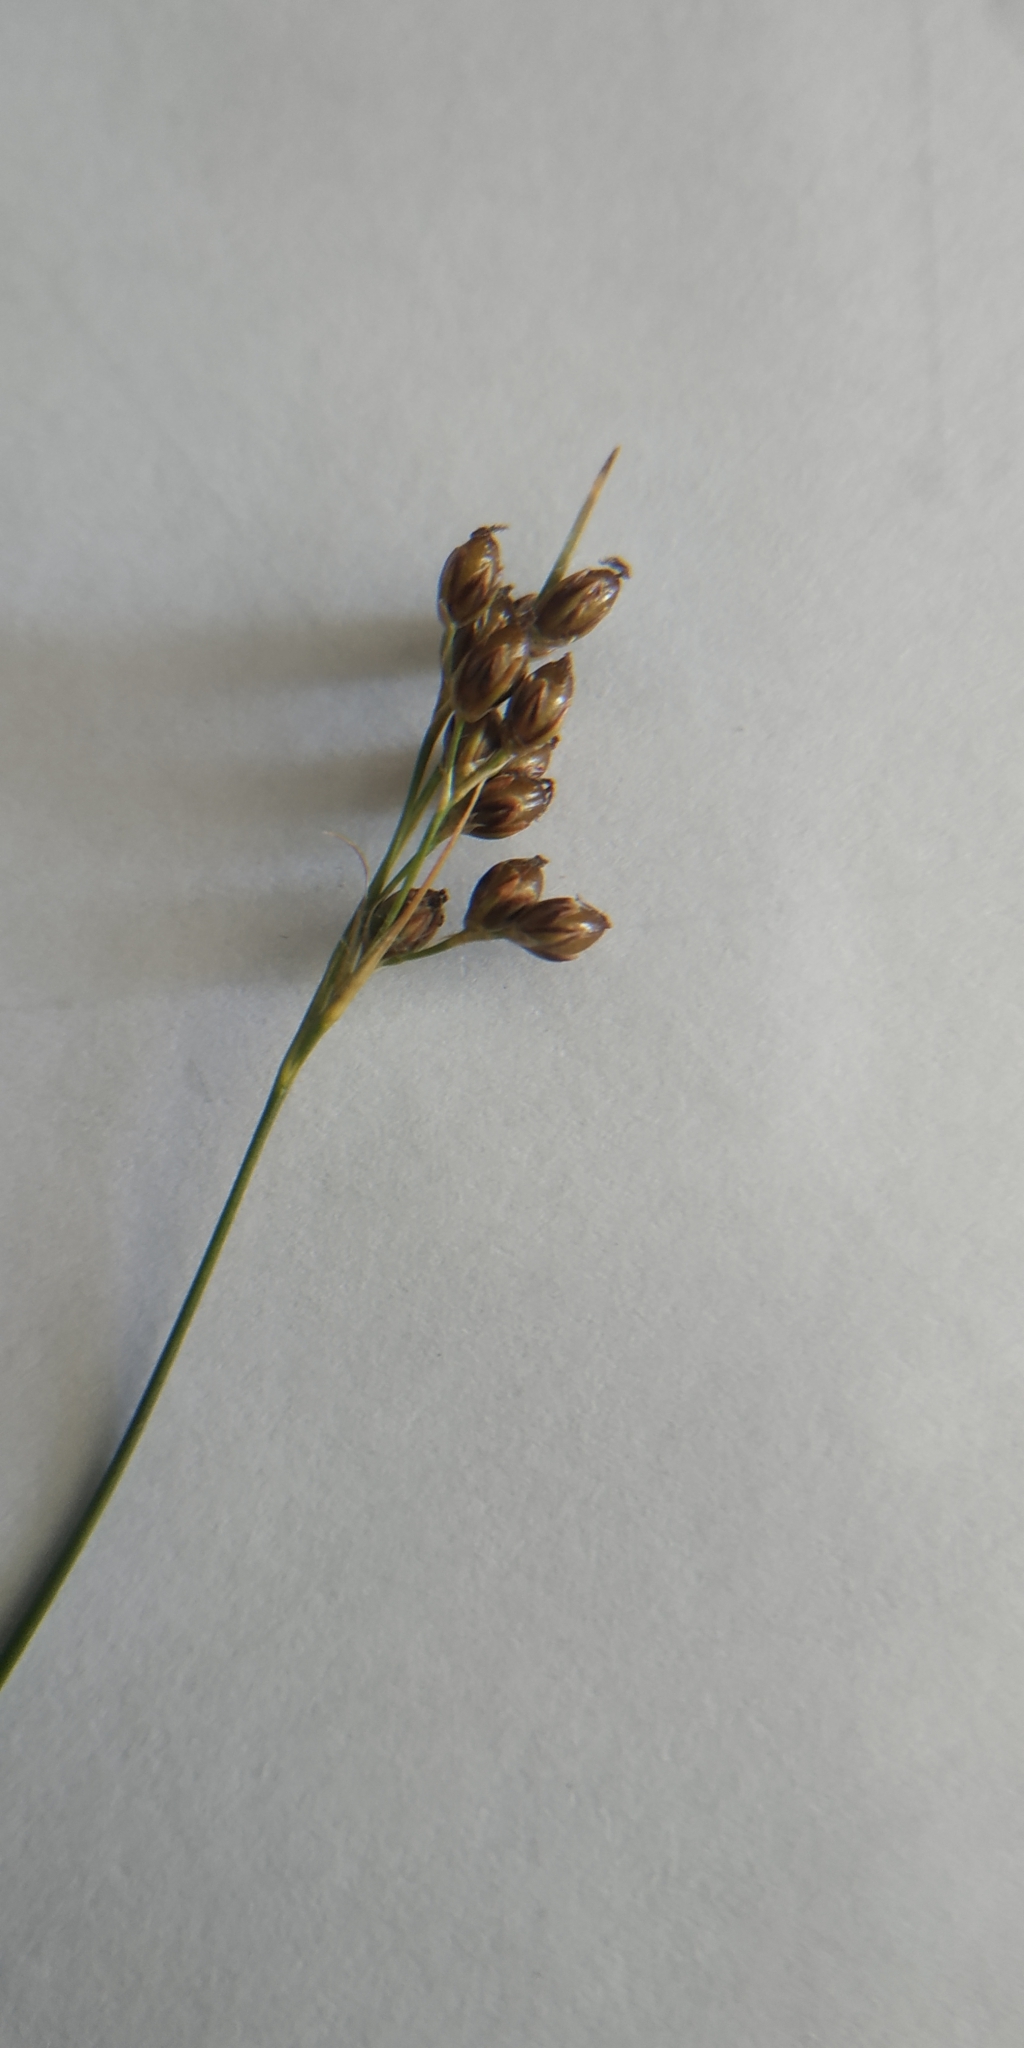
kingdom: Plantae
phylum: Tracheophyta
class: Liliopsida
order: Poales
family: Juncaceae
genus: Juncus
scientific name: Juncus compressus
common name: Round-fruited rush
